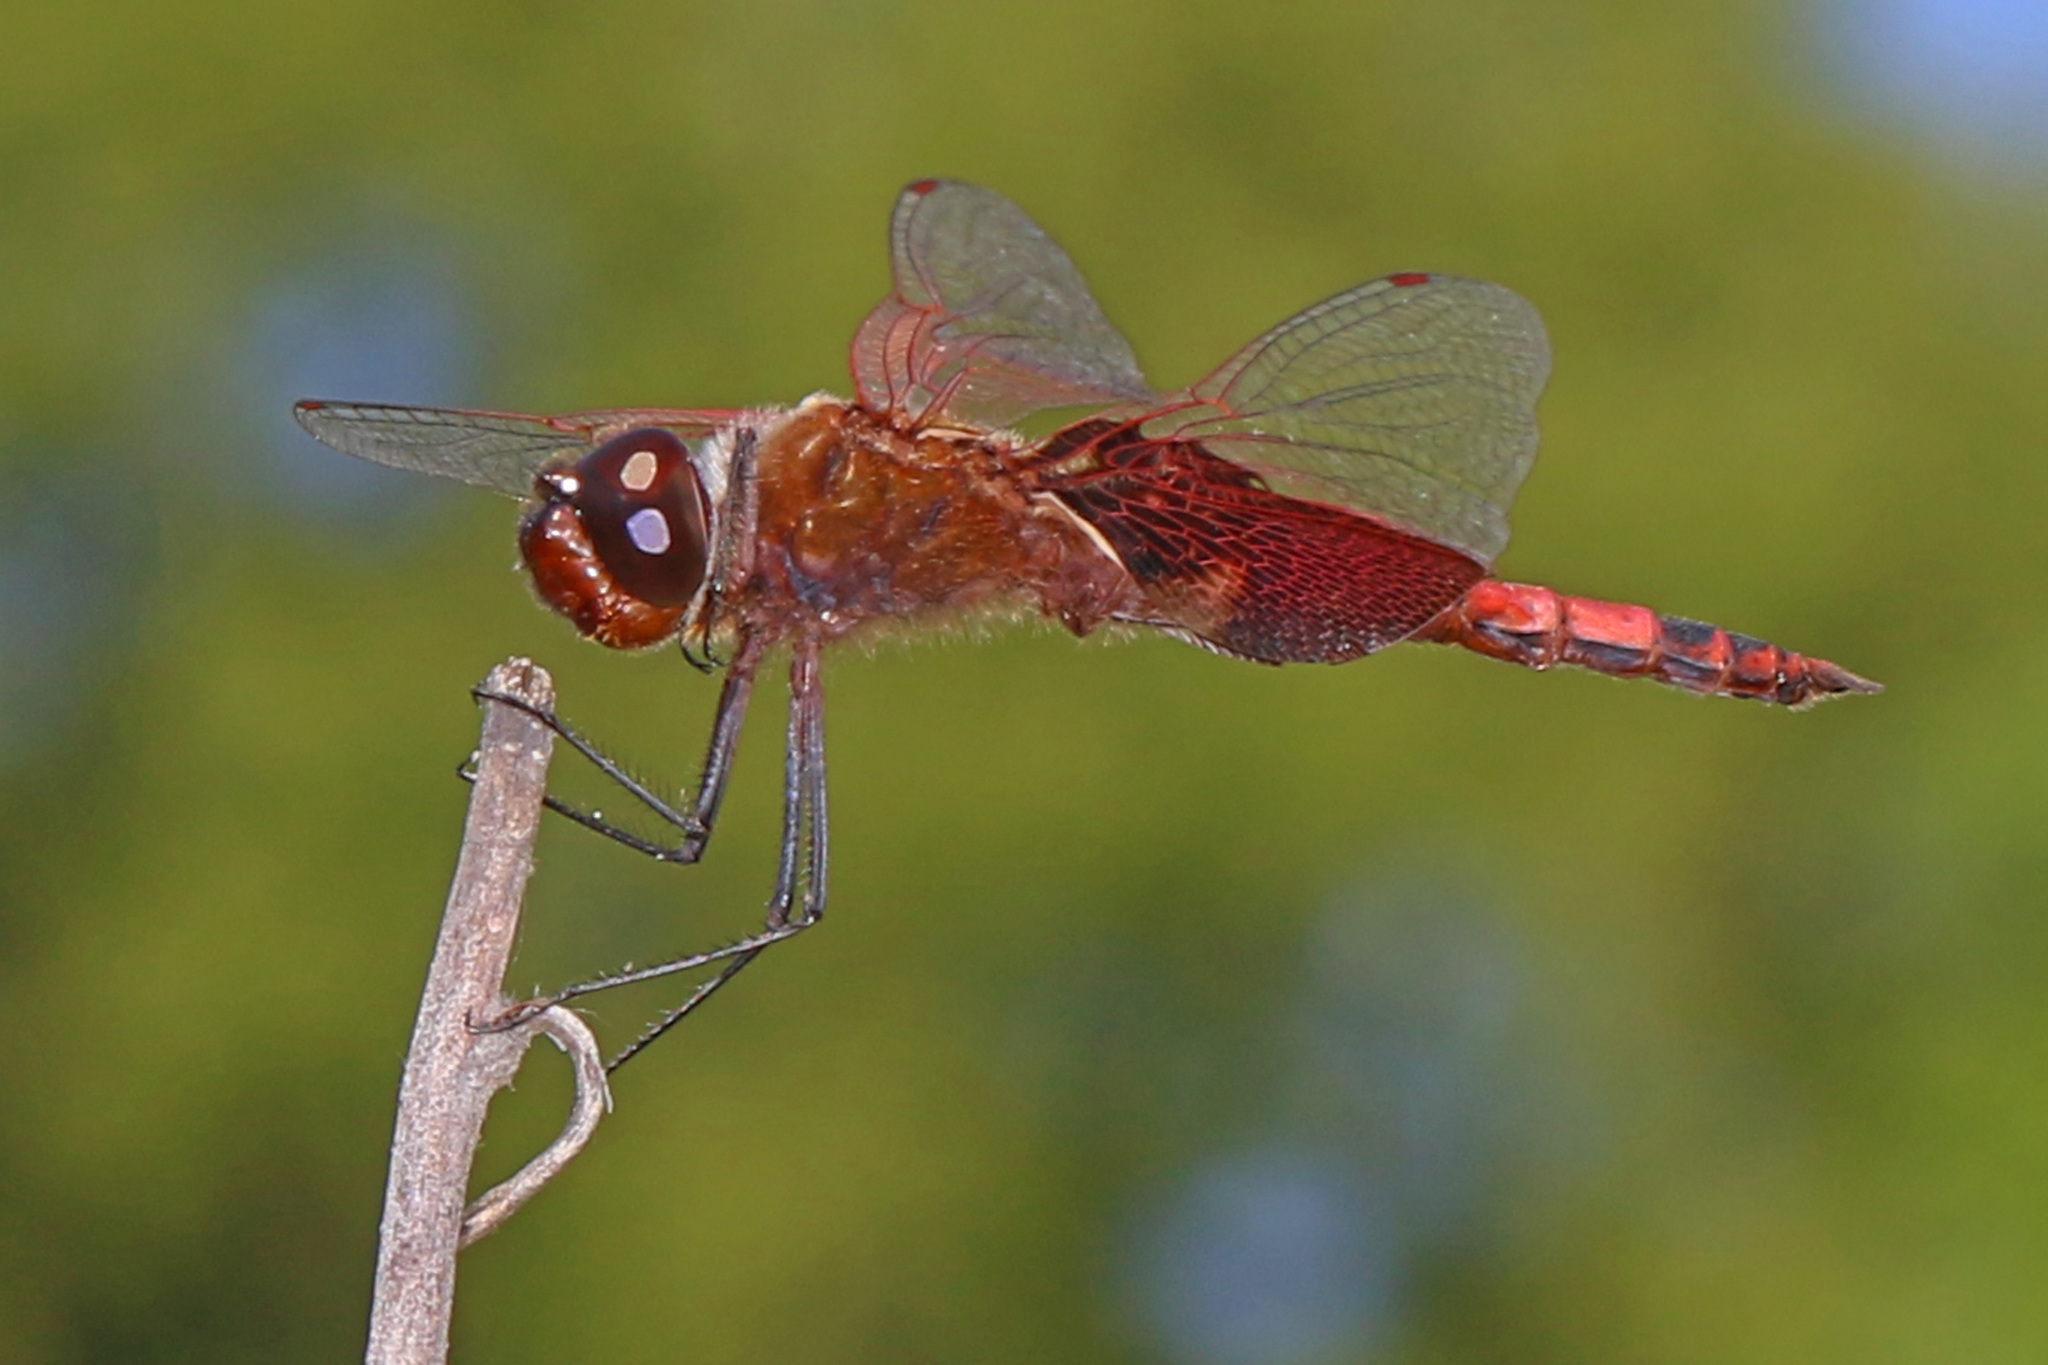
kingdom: Animalia
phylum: Arthropoda
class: Insecta
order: Odonata
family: Libellulidae
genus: Tramea
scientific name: Tramea carolina
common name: Carolina saddlebags
